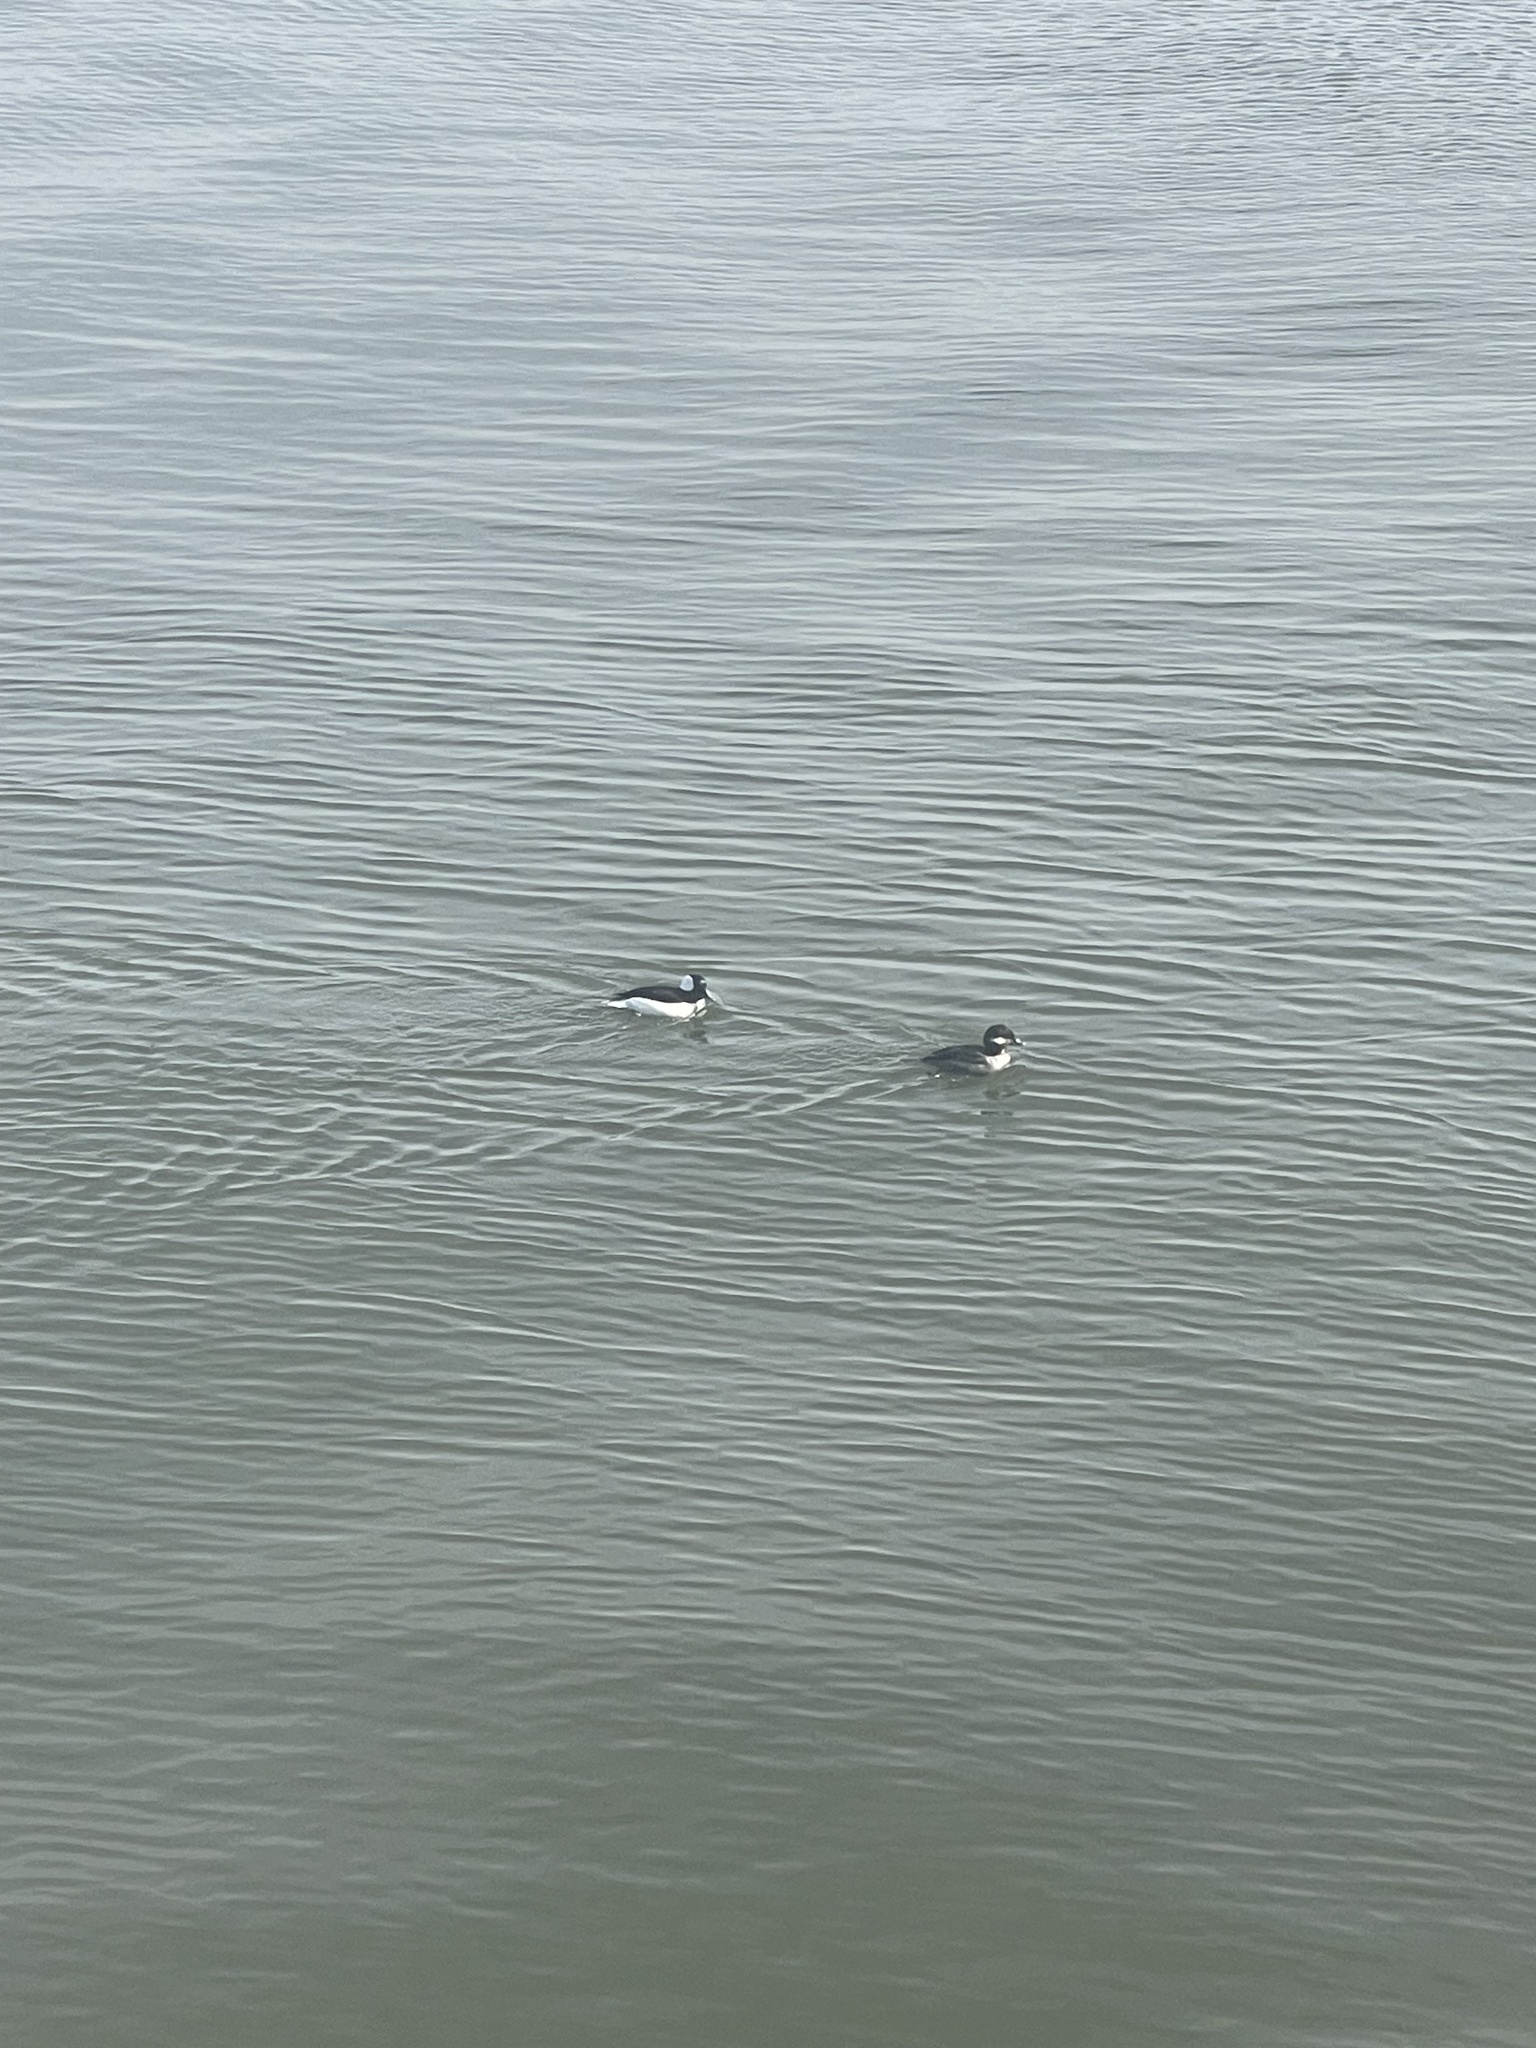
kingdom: Animalia
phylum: Chordata
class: Aves
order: Anseriformes
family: Anatidae
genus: Bucephala
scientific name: Bucephala albeola
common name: Bufflehead
